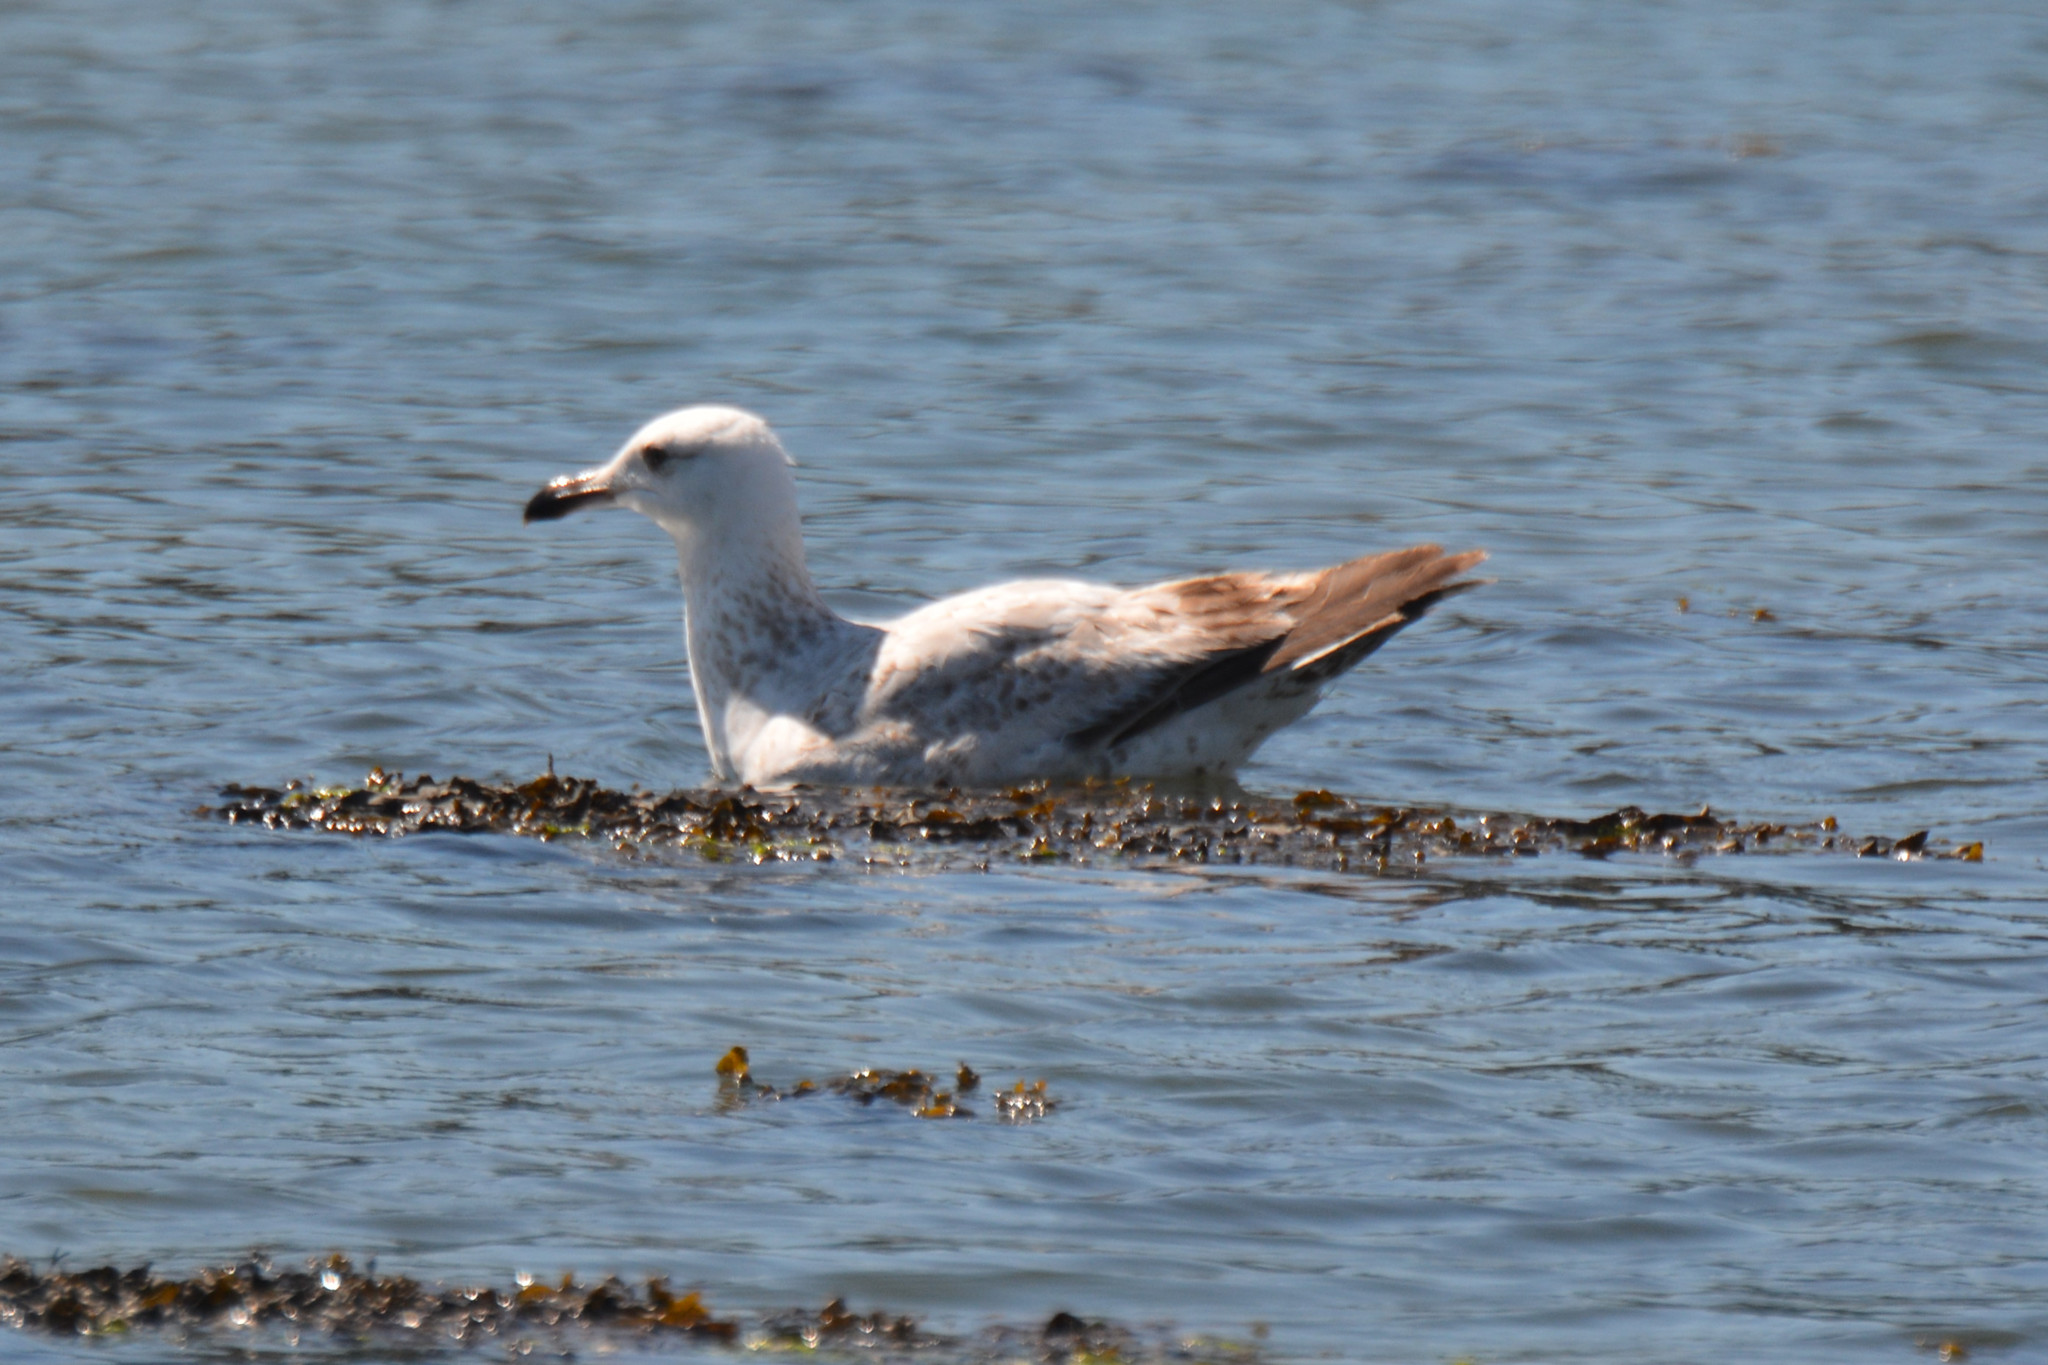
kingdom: Animalia
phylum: Chordata
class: Aves
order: Charadriiformes
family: Laridae
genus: Larus
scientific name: Larus argentatus
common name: Herring gull
